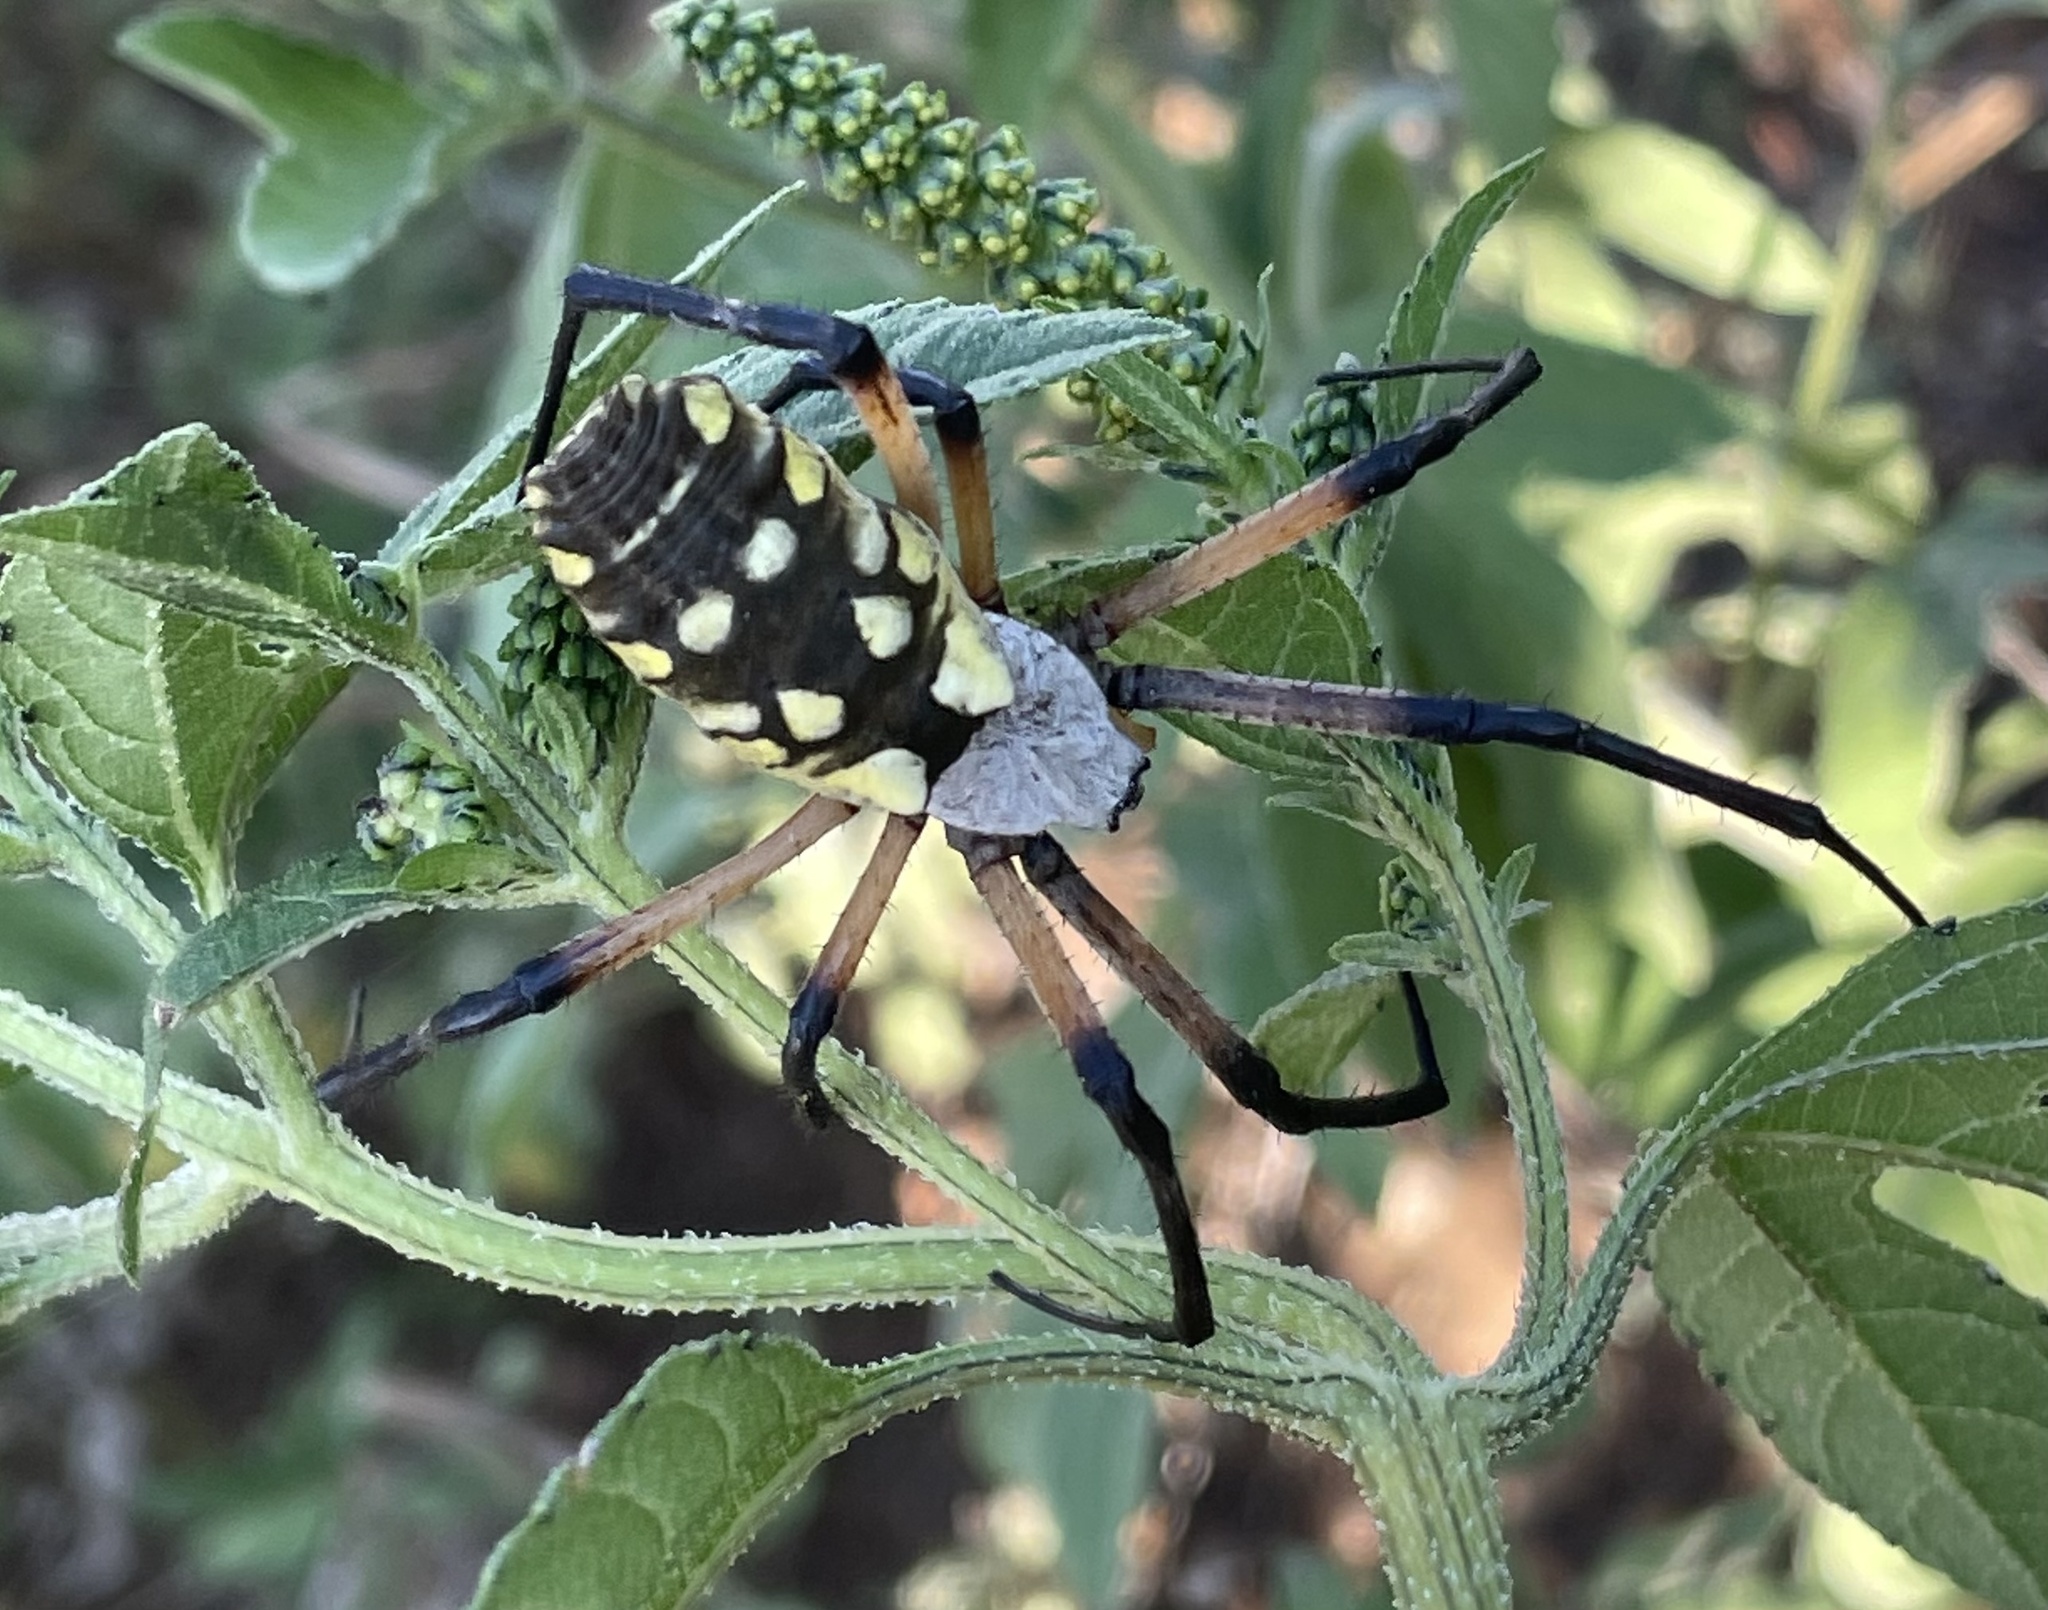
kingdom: Animalia
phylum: Arthropoda
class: Arachnida
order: Araneae
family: Araneidae
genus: Argiope
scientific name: Argiope aurantia
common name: Orb weavers
